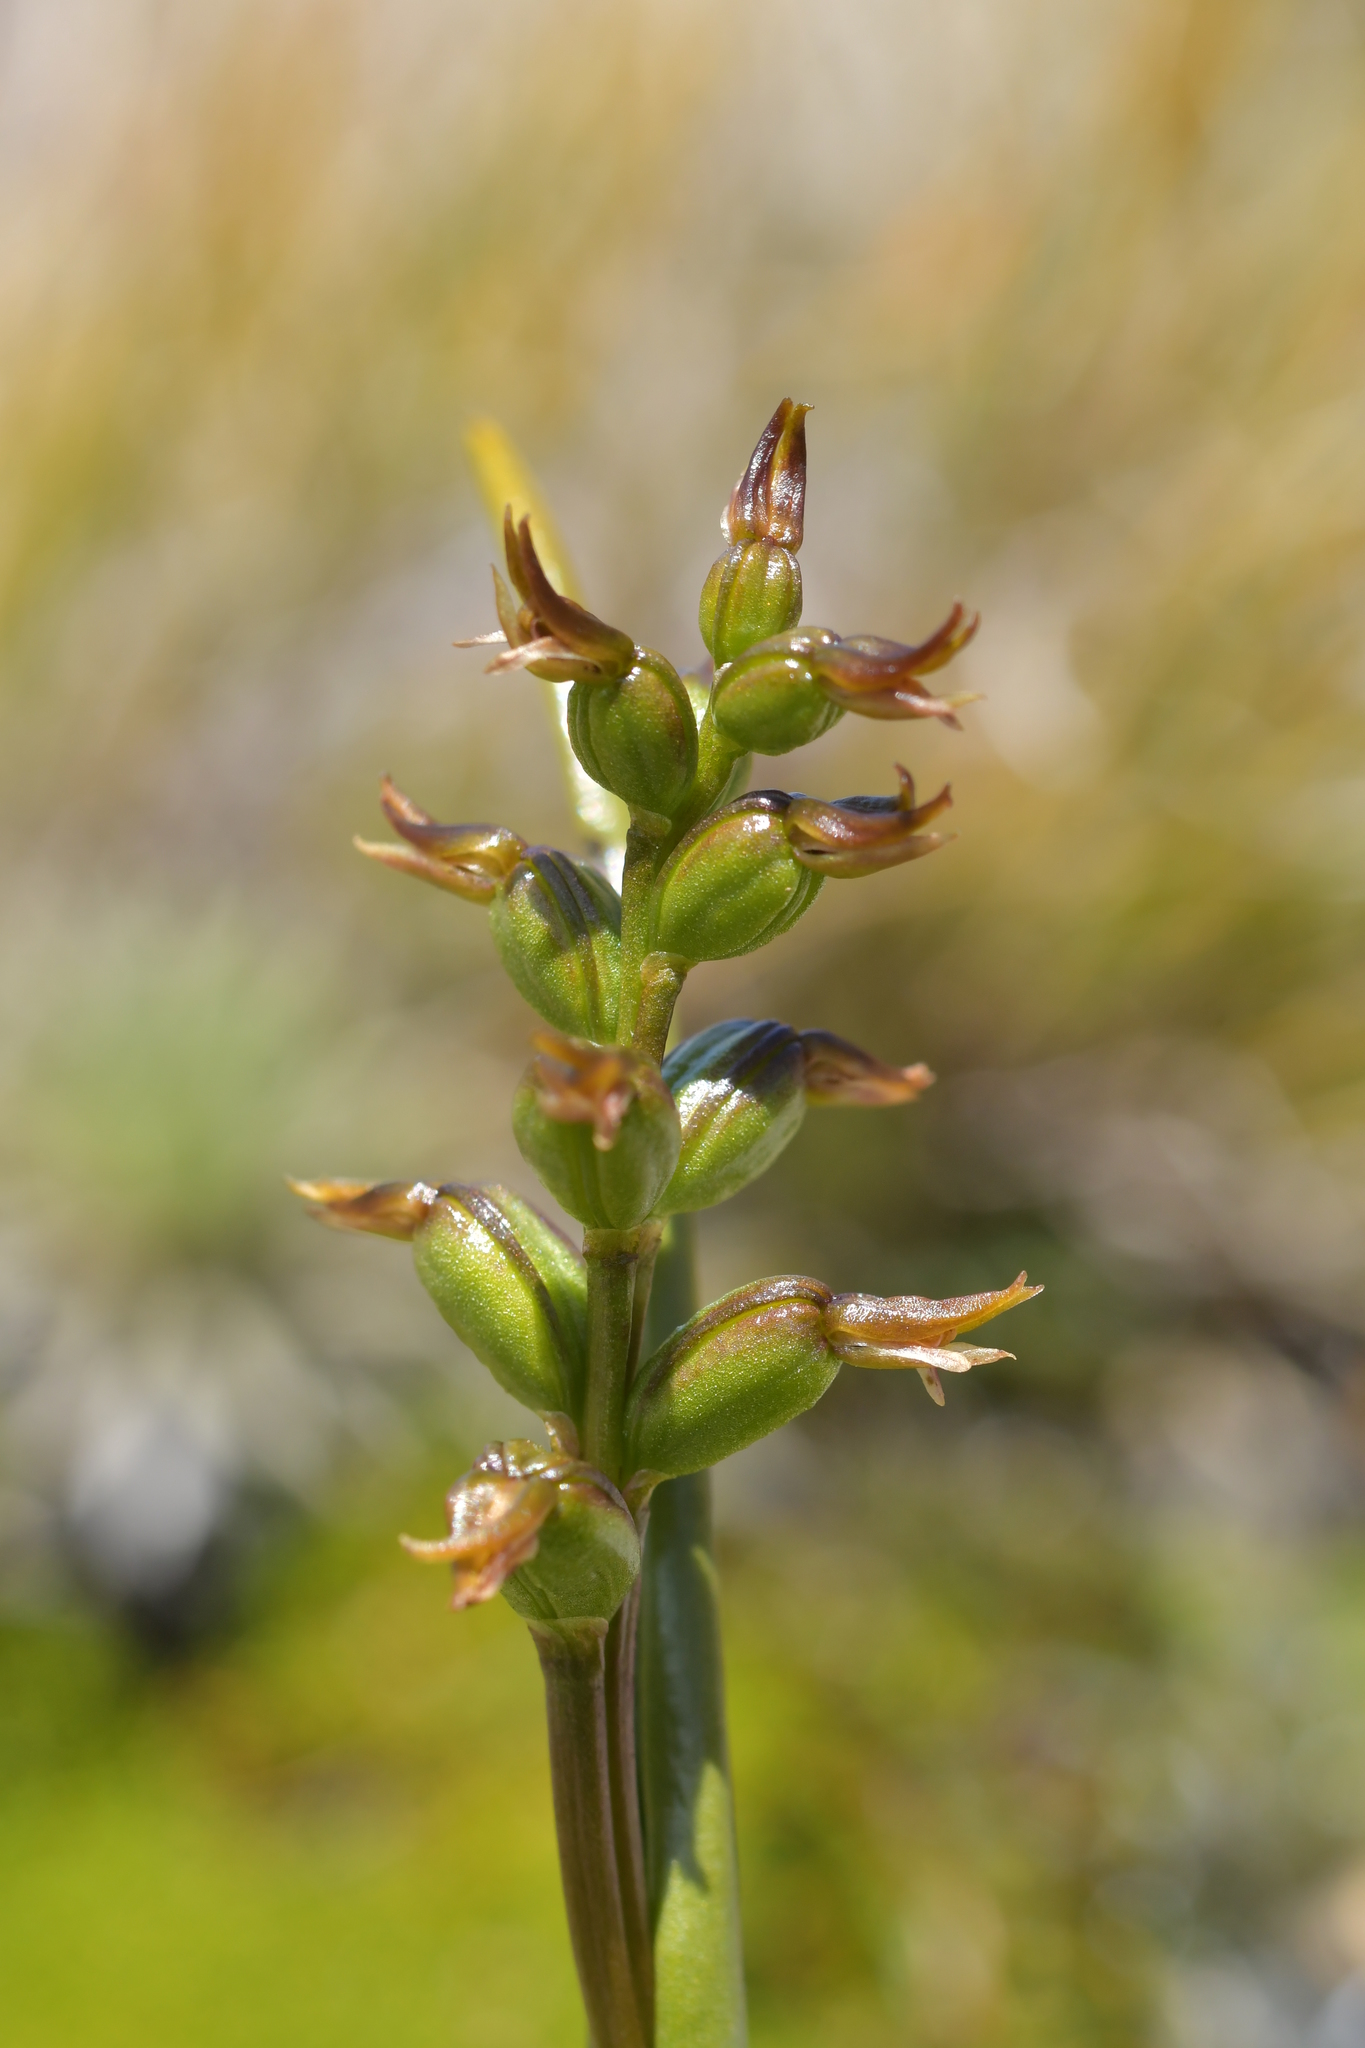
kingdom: Plantae
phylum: Tracheophyta
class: Liliopsida
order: Asparagales
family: Orchidaceae
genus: Prasophyllum
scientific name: Prasophyllum colensoi
